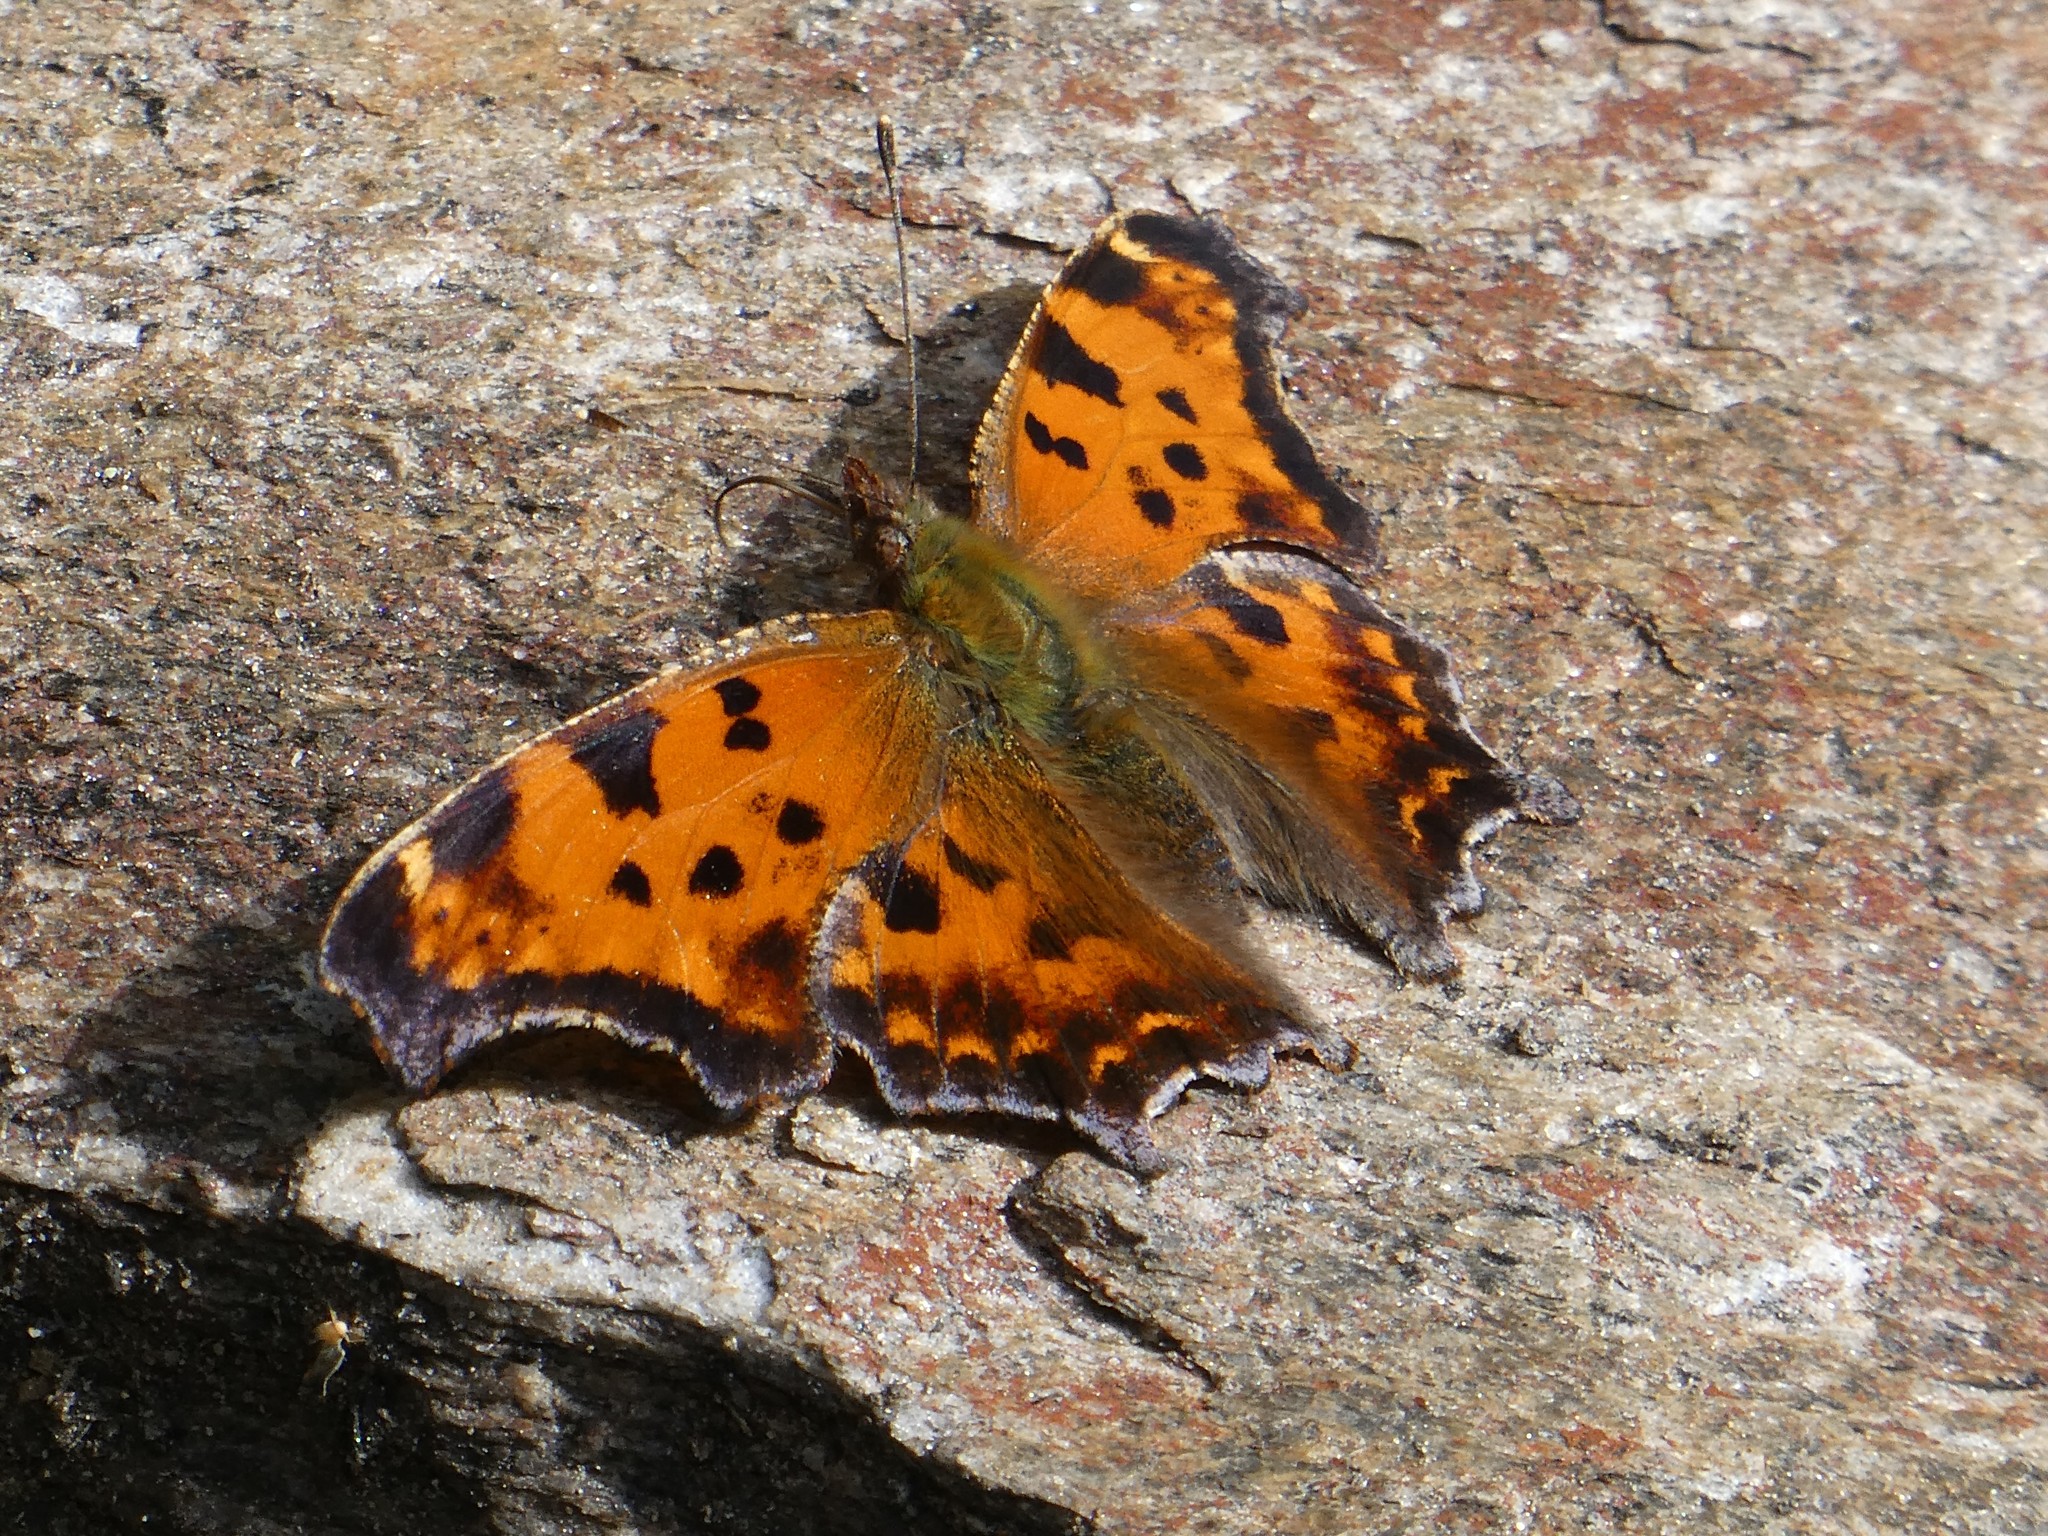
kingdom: Animalia
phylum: Arthropoda
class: Insecta
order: Lepidoptera
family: Nymphalidae
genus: Polygonia
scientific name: Polygonia comma
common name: Eastern comma
